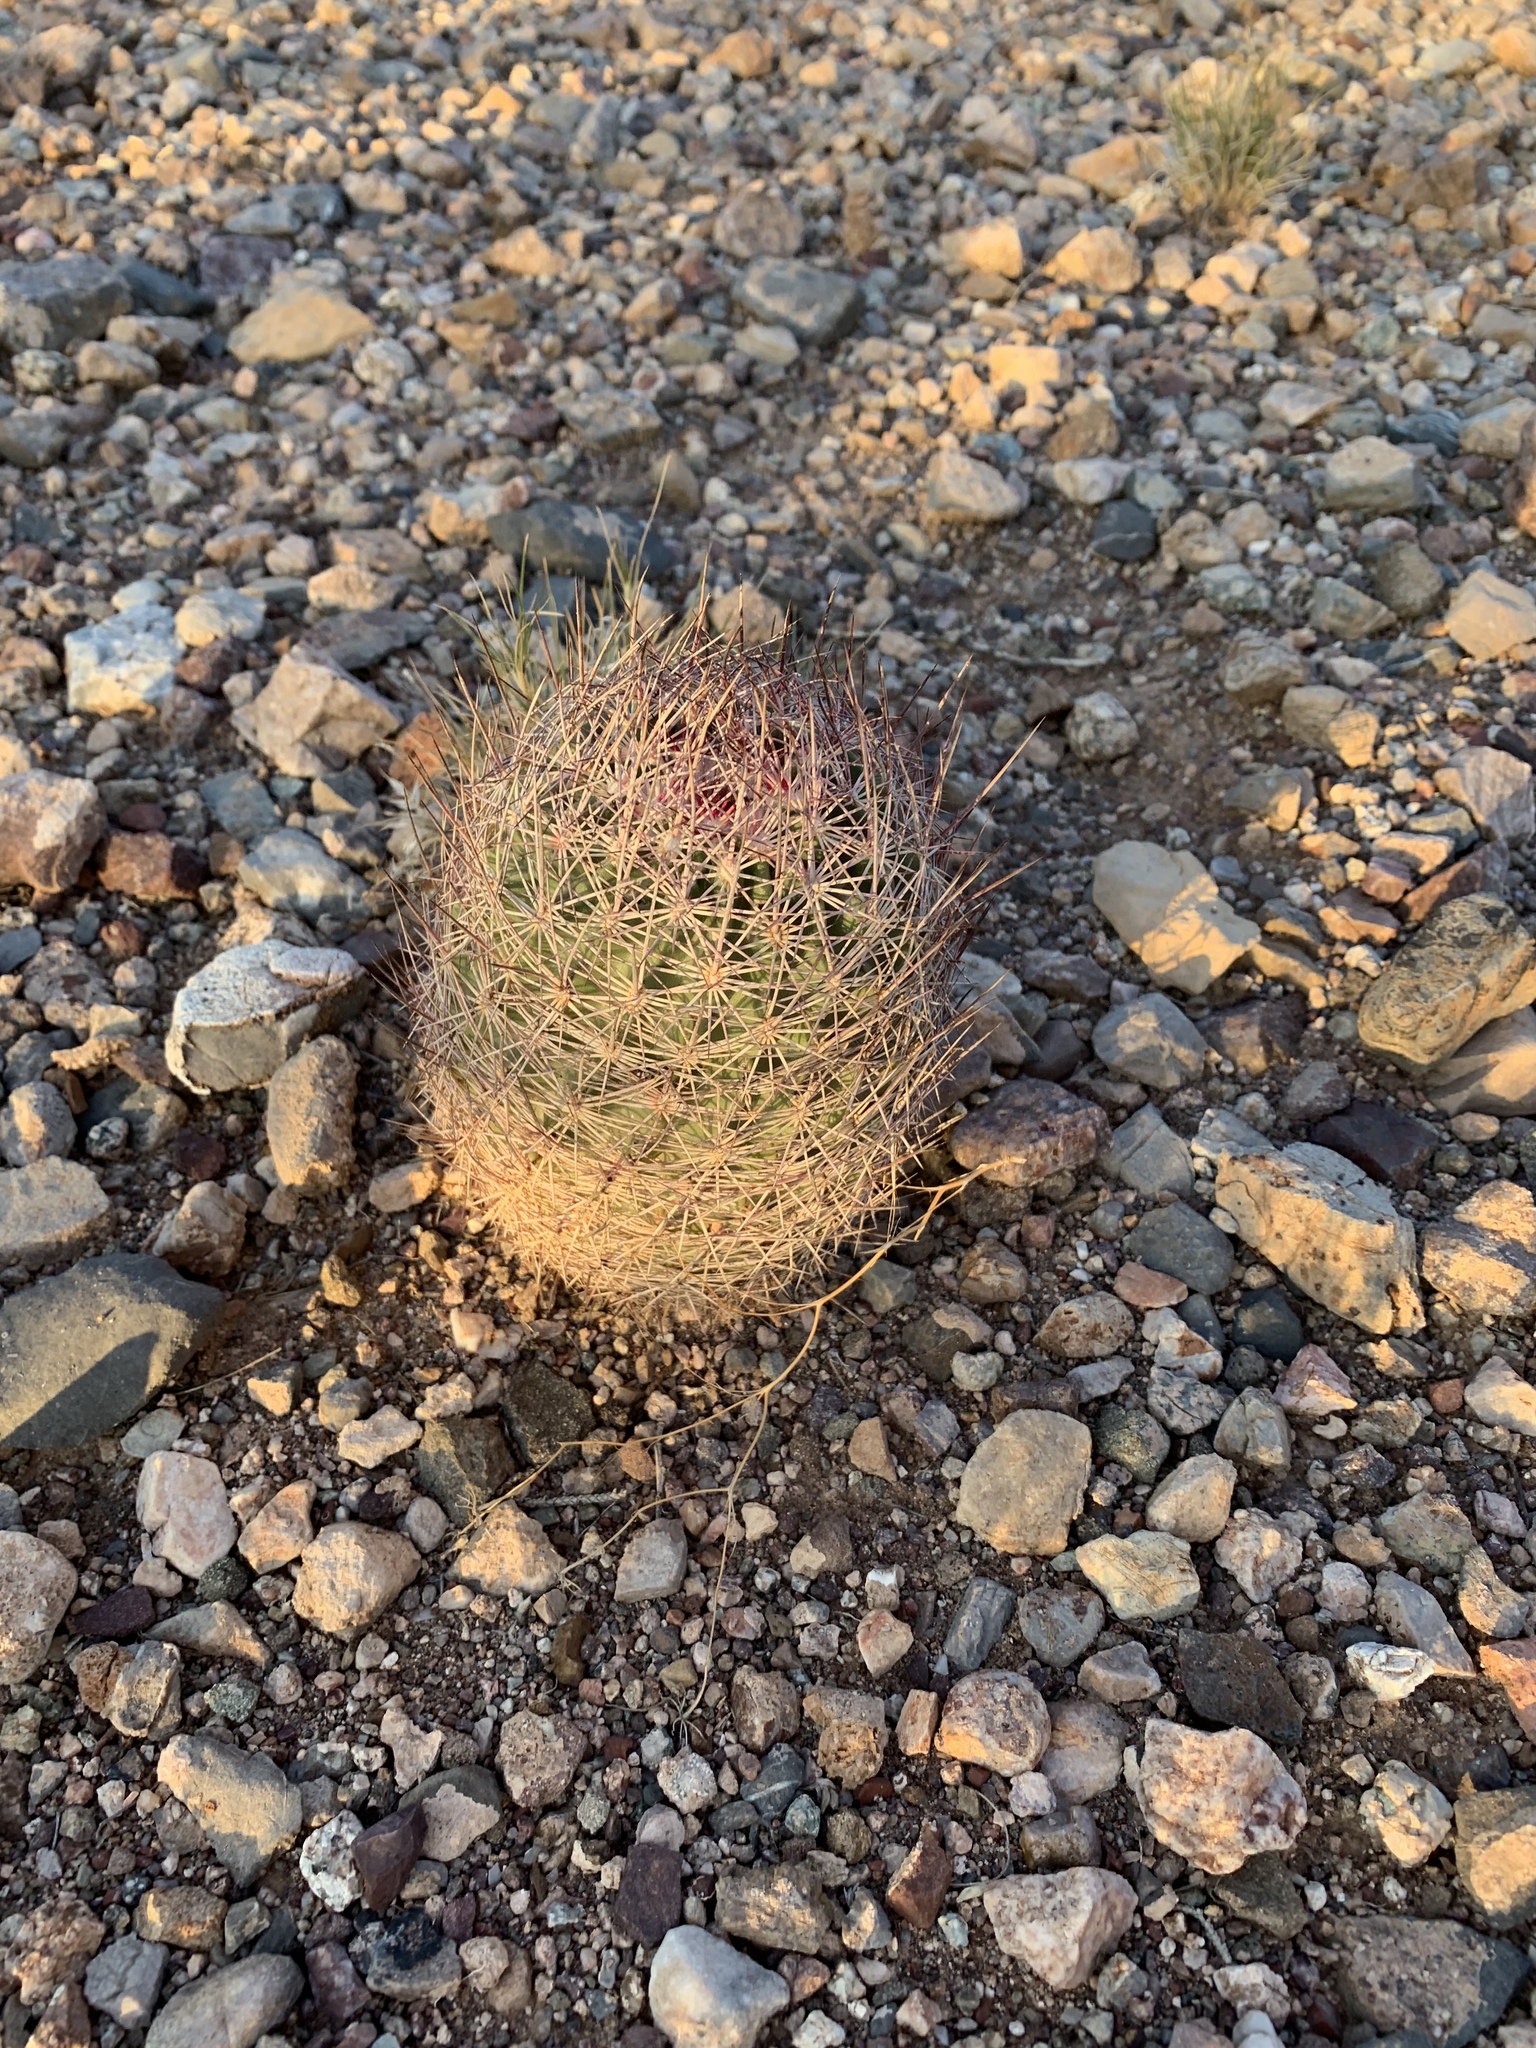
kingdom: Plantae
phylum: Tracheophyta
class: Magnoliopsida
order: Caryophyllales
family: Cactaceae
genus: Sclerocactus
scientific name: Sclerocactus johnsonii
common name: Eight-spine fishhook cactus
